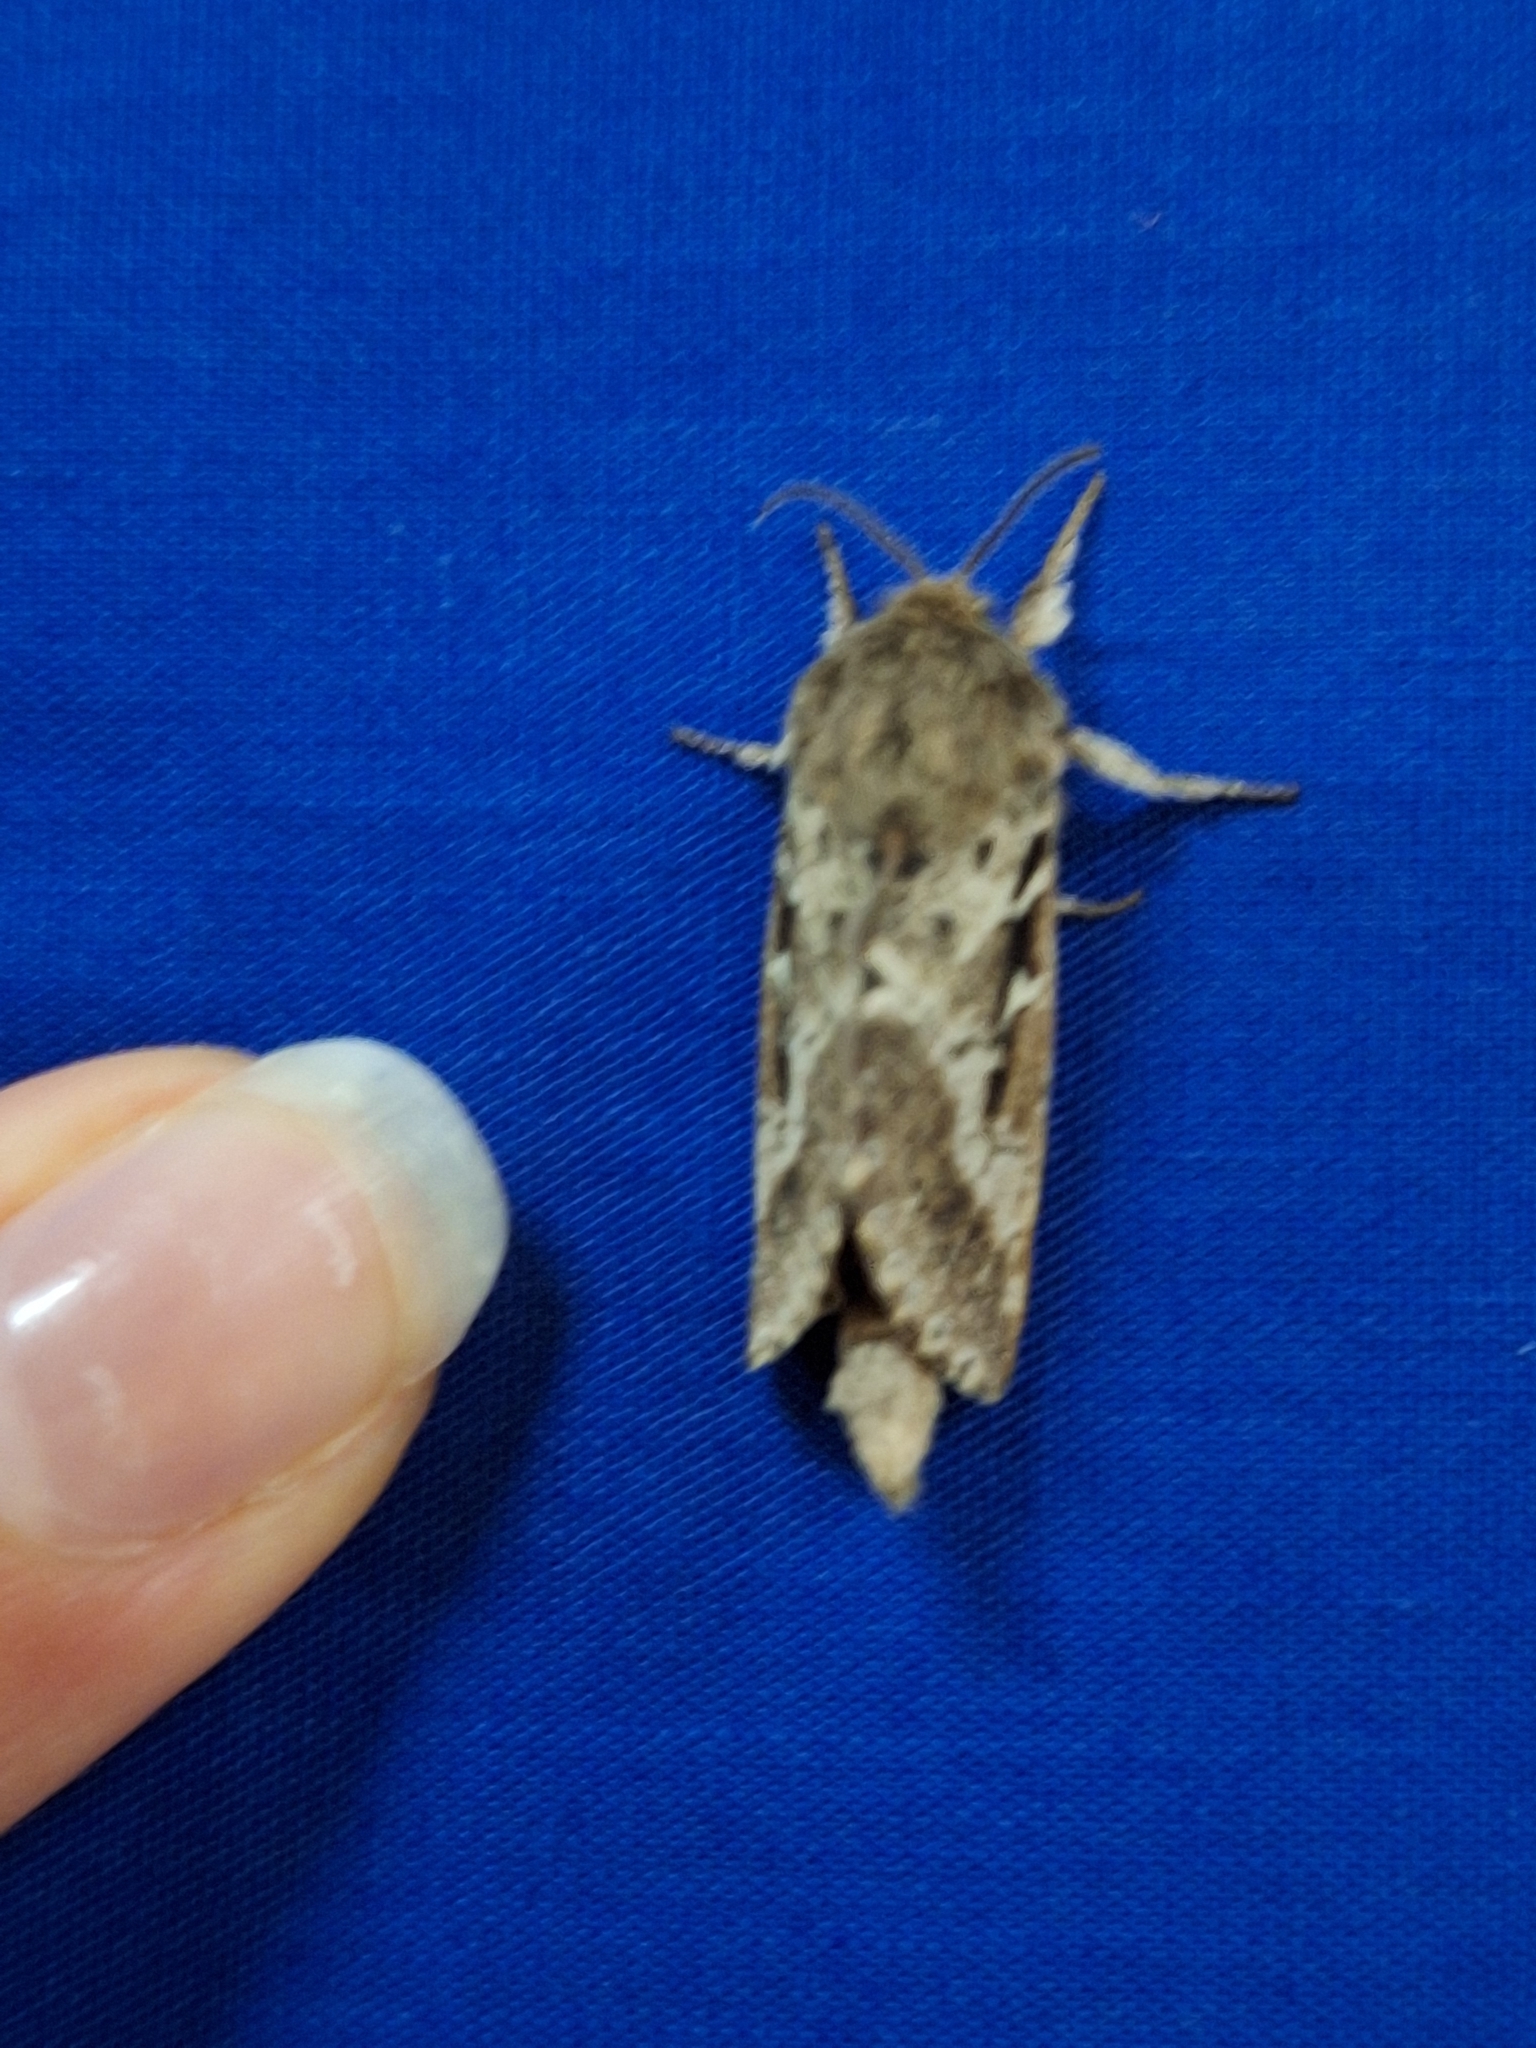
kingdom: Animalia
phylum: Arthropoda
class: Insecta
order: Lepidoptera
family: Hepialidae
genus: Wiseana
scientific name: Wiseana cervinata
